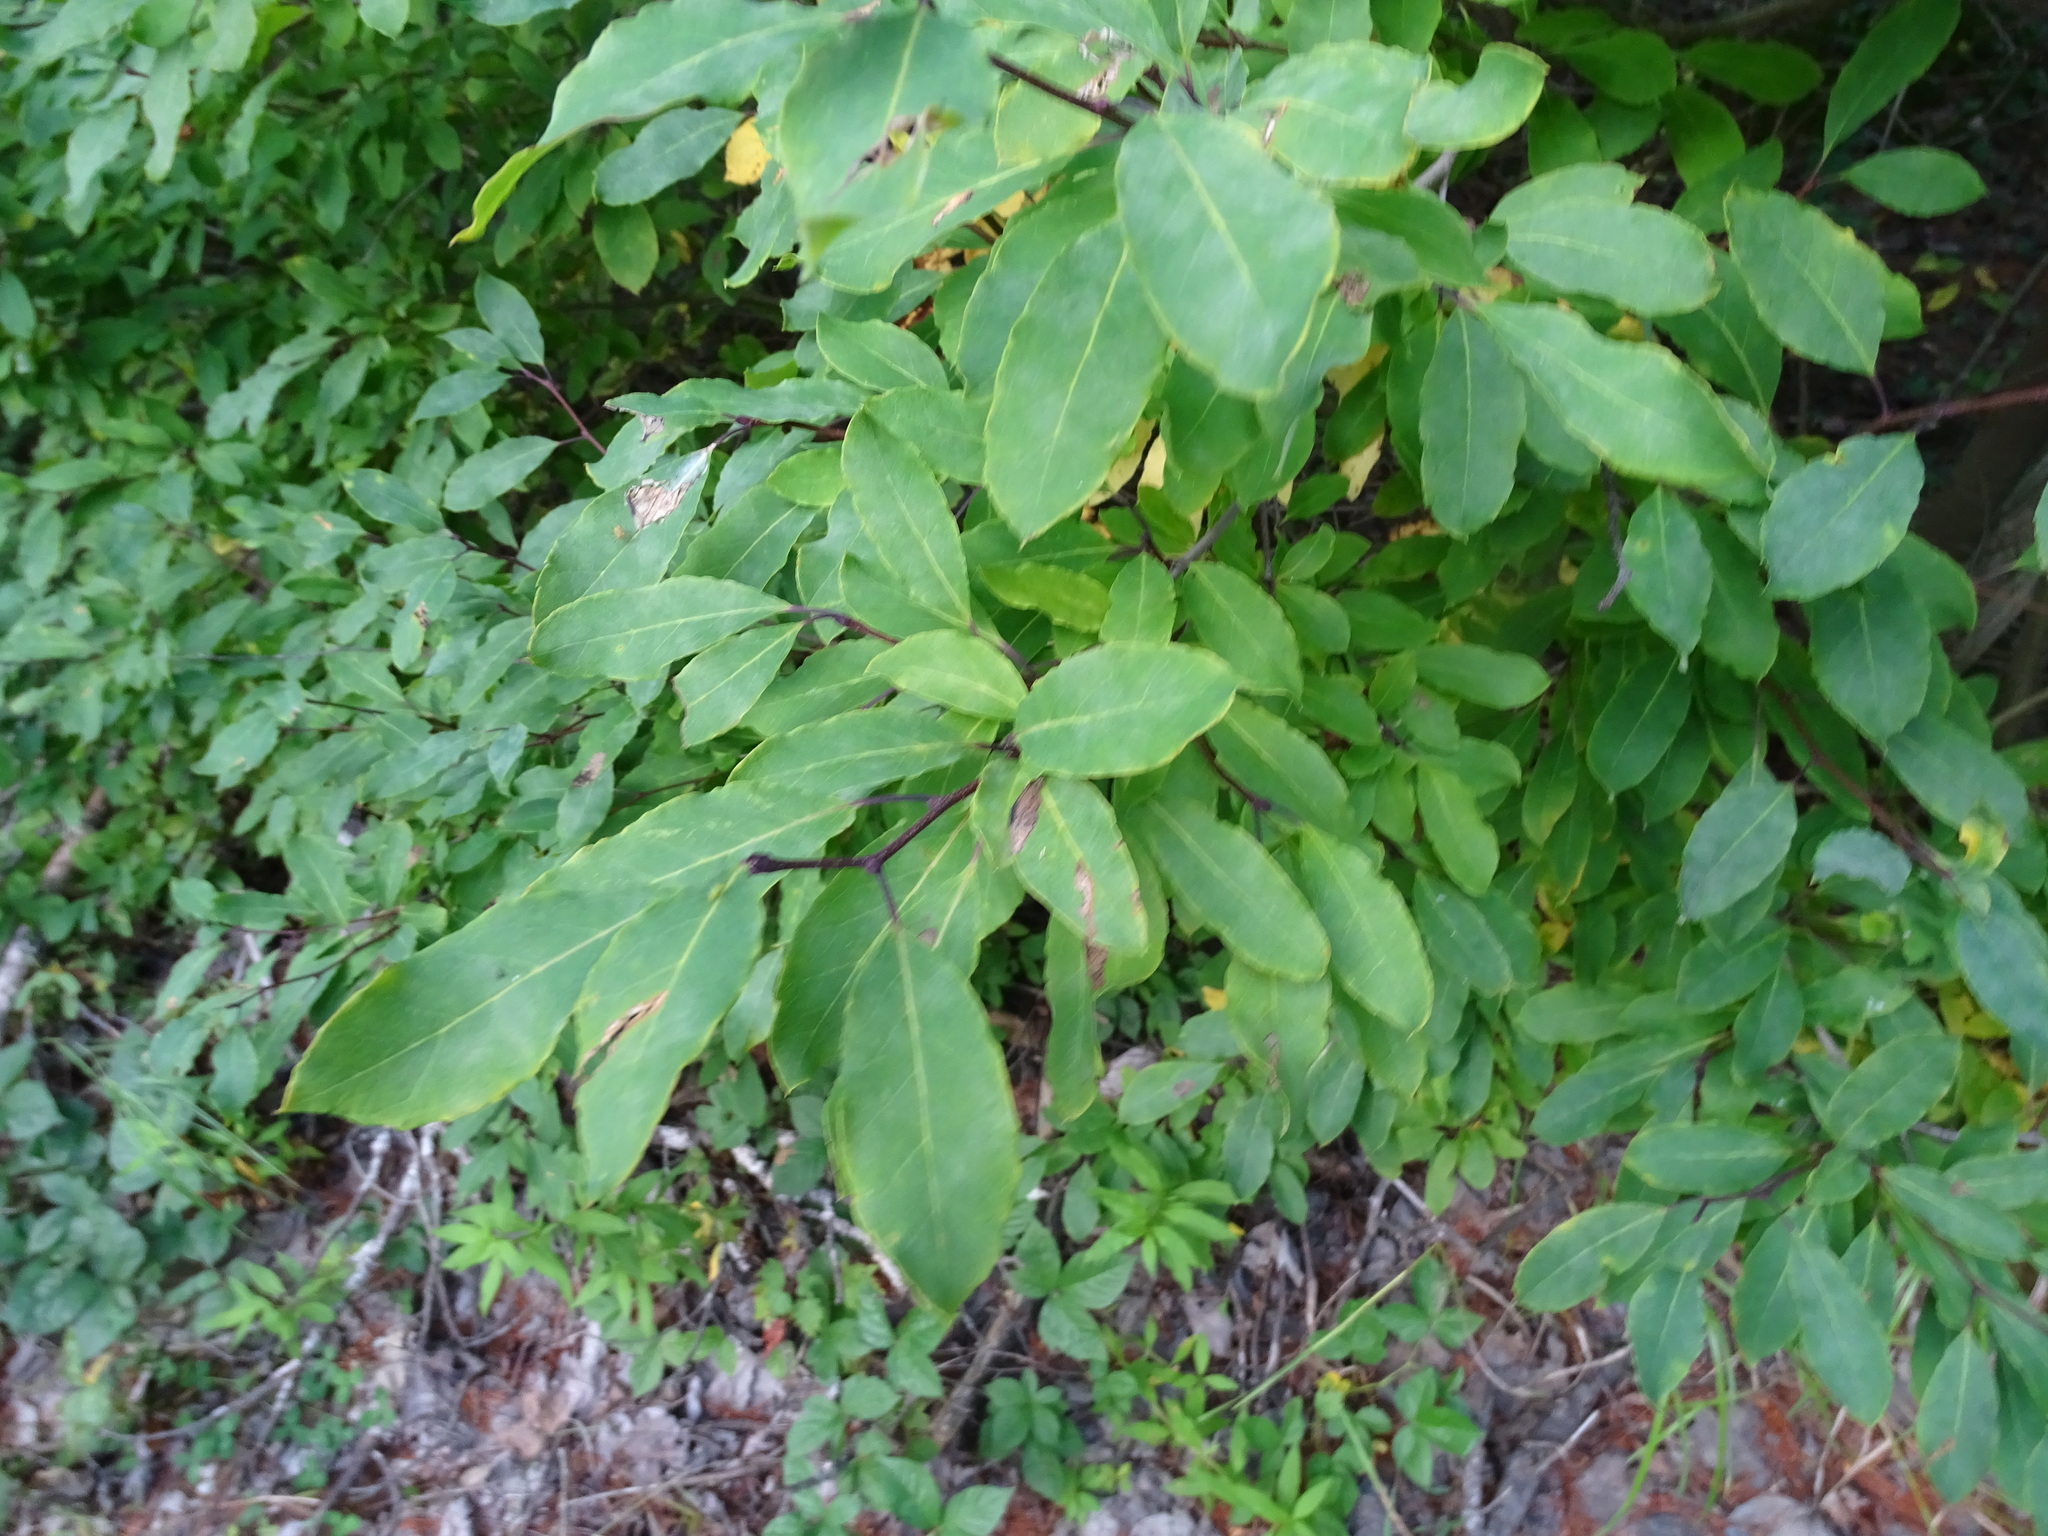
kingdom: Plantae
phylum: Tracheophyta
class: Magnoliopsida
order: Aquifoliales
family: Aquifoliaceae
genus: Ilex
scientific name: Ilex mucronata
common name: Catberry
